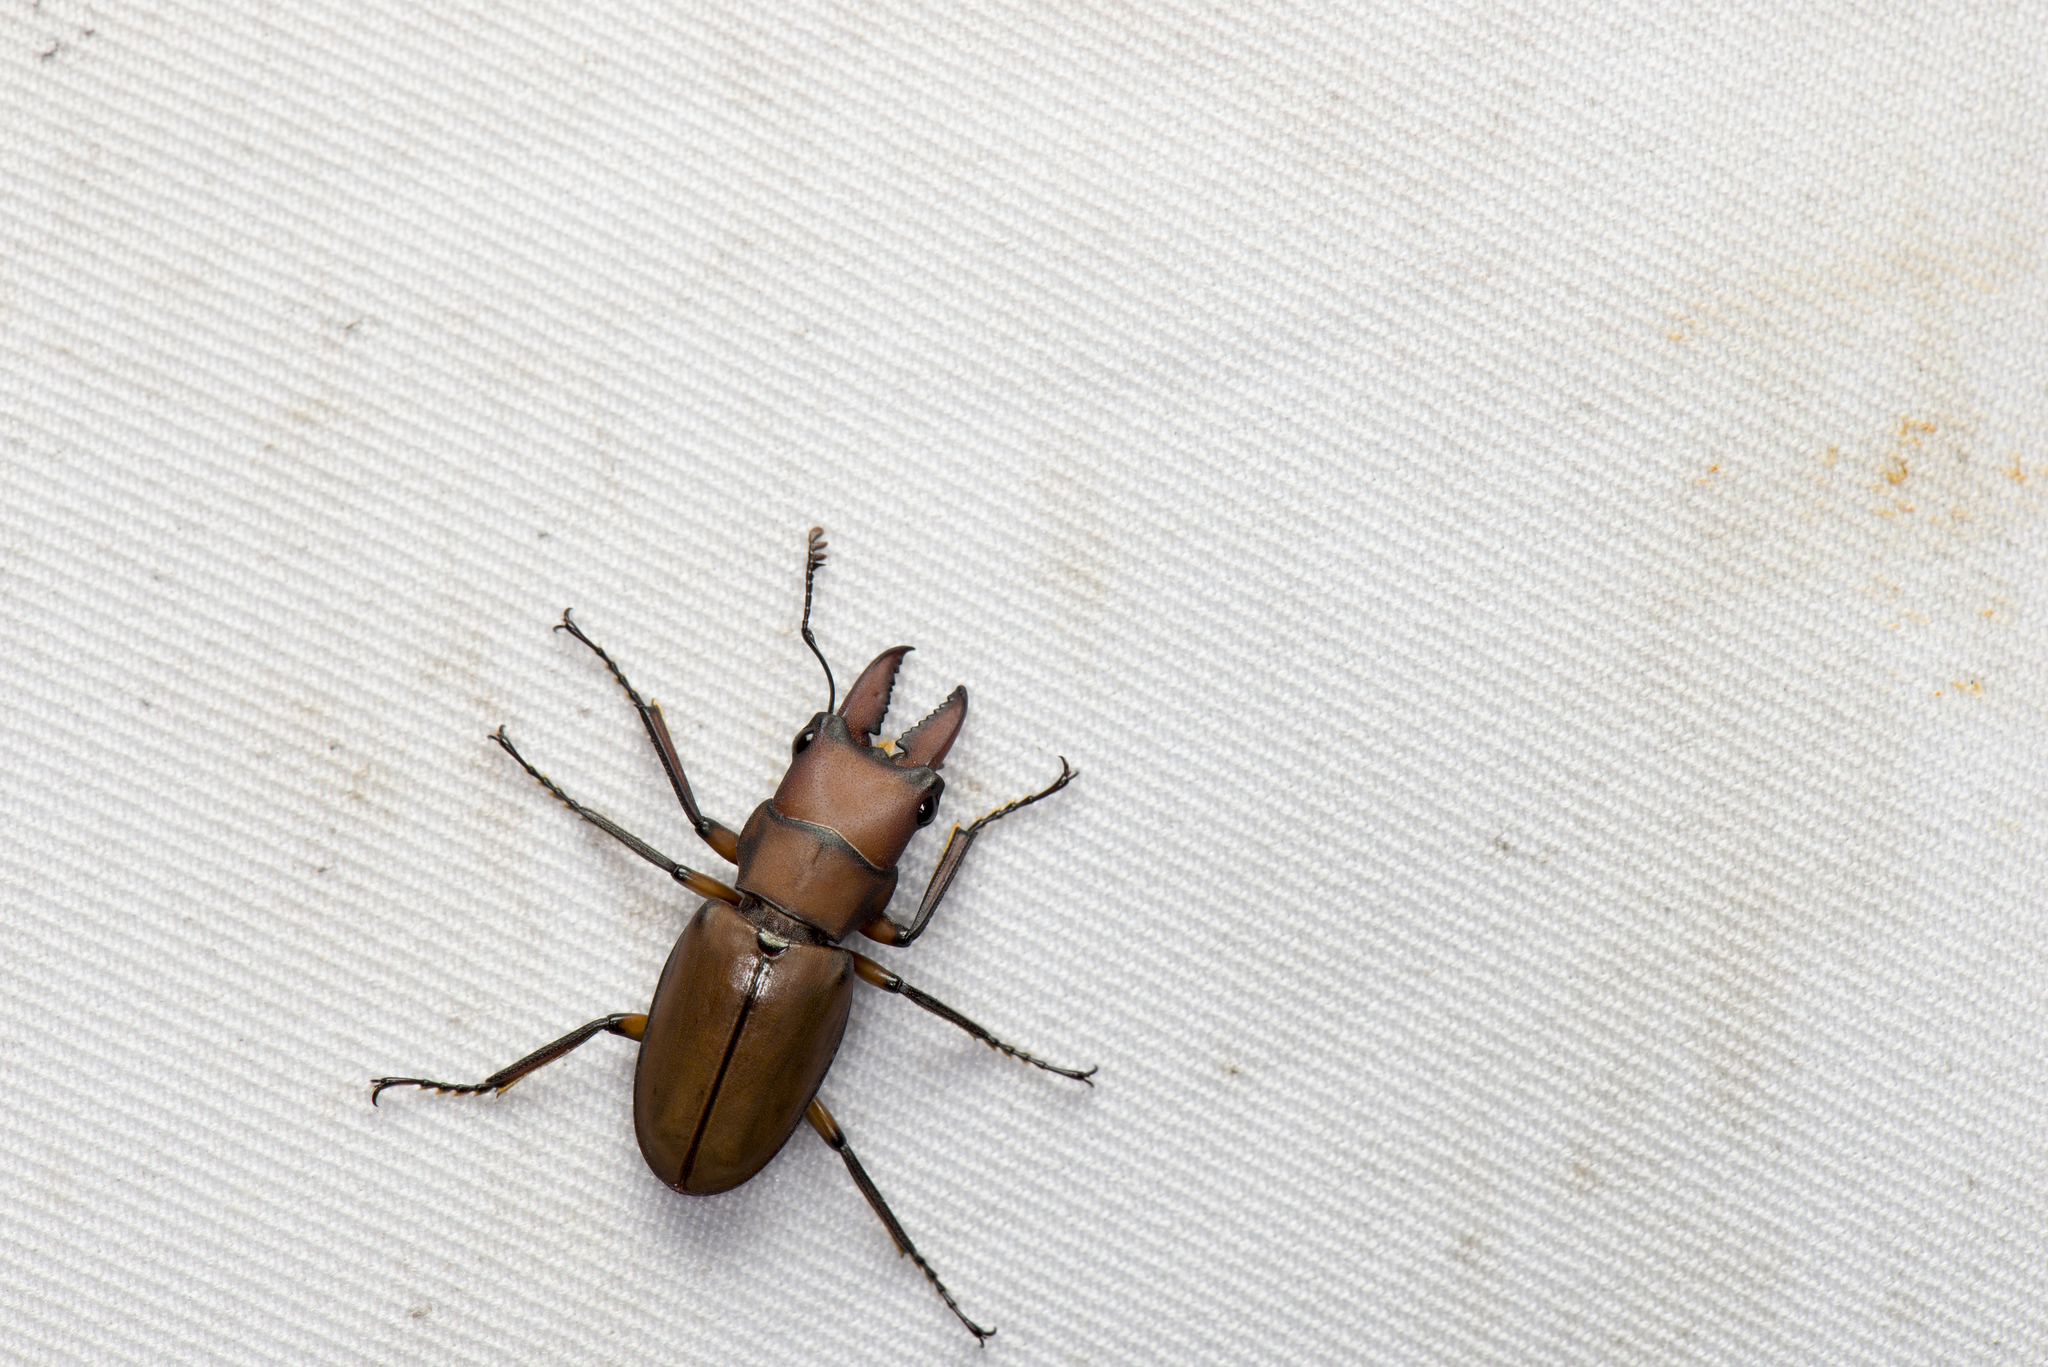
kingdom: Animalia
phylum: Arthropoda
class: Insecta
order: Coleoptera
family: Lucanidae
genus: Cyclommatinus
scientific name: Cyclommatinus scutellaris
